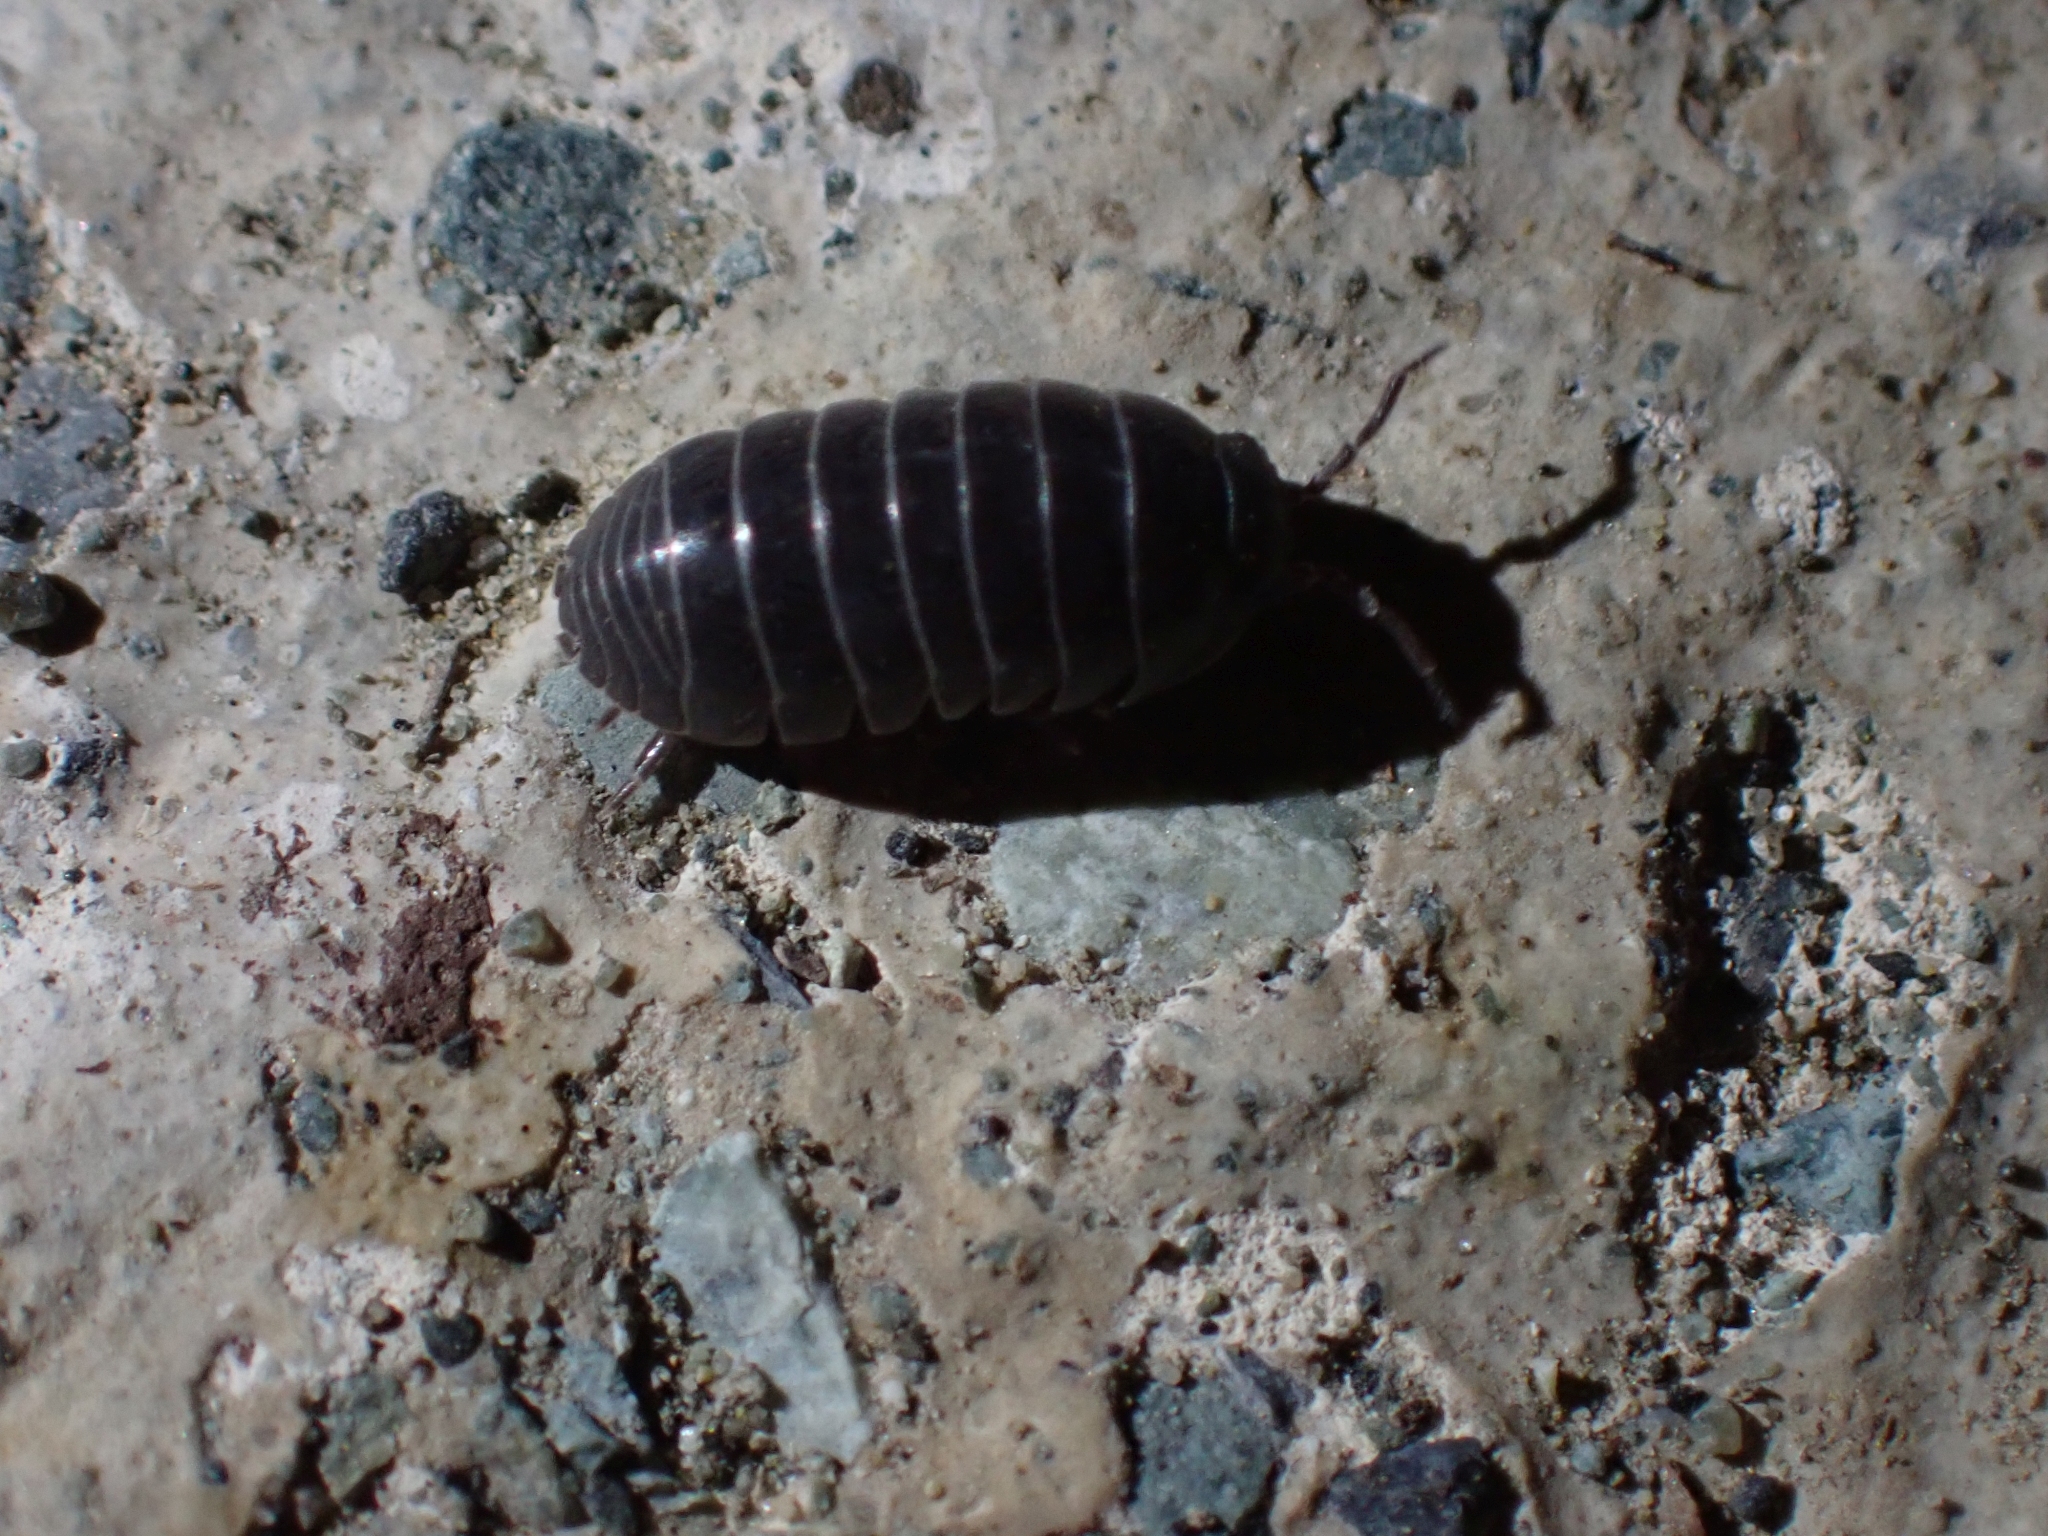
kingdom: Animalia
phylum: Arthropoda
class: Malacostraca
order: Isopoda
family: Armadillidiidae
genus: Armadillidium
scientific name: Armadillidium vulgare
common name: Common pill woodlouse
